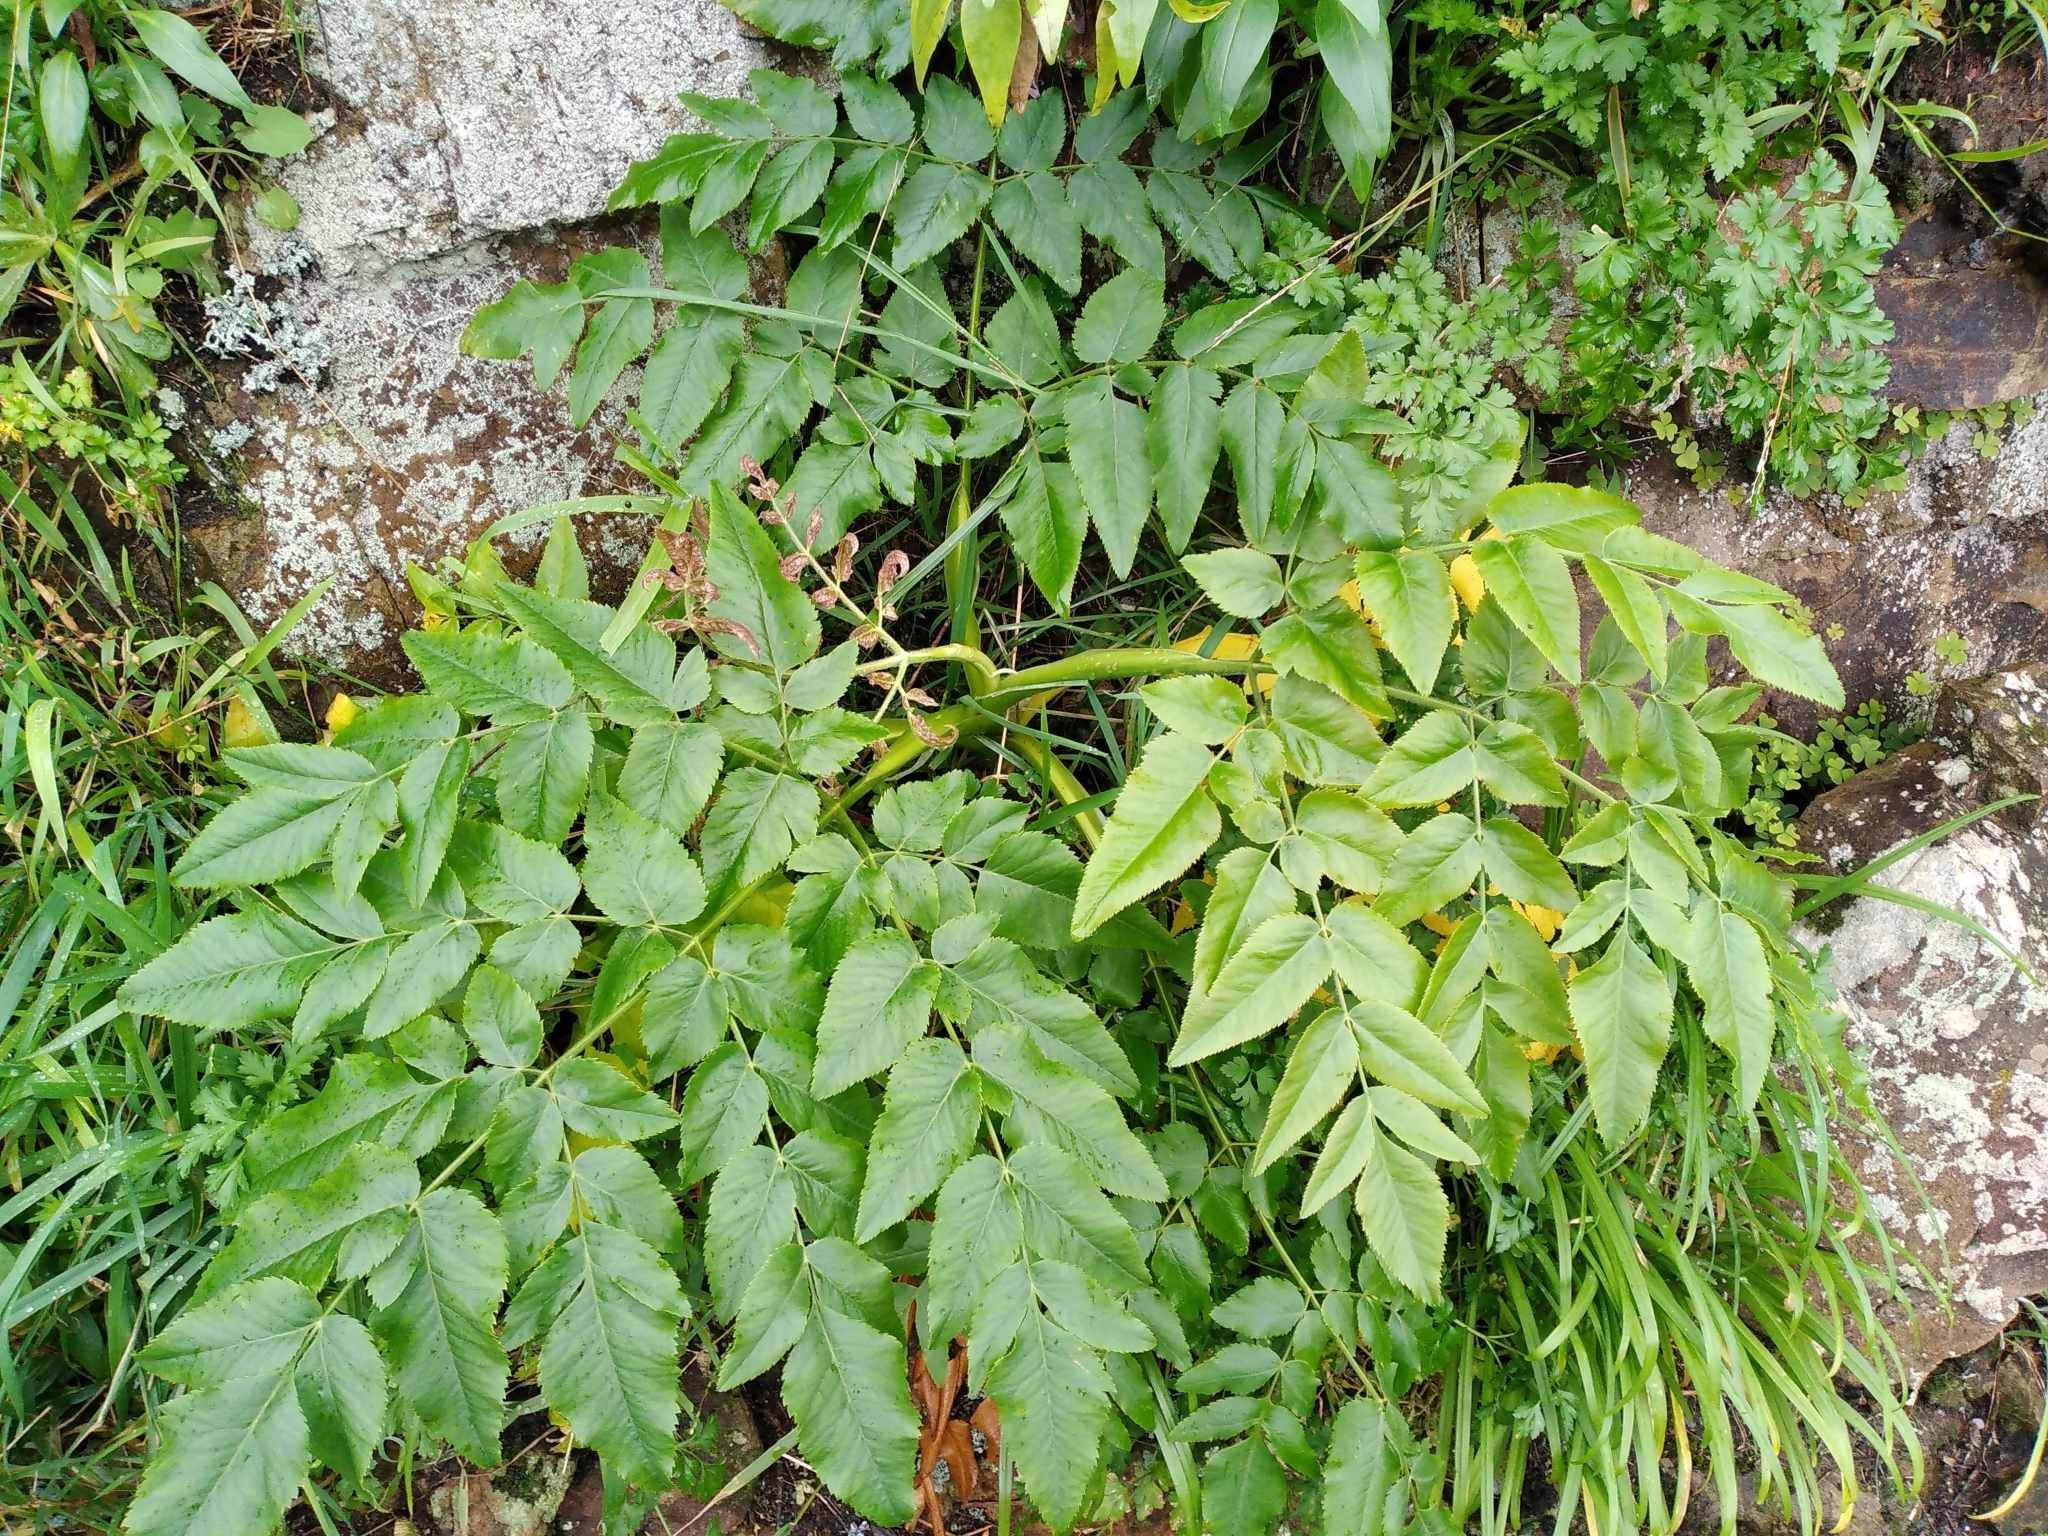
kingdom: Plantae
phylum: Tracheophyta
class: Magnoliopsida
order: Apiales
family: Apiaceae
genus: Daucus
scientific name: Daucus decipiens
